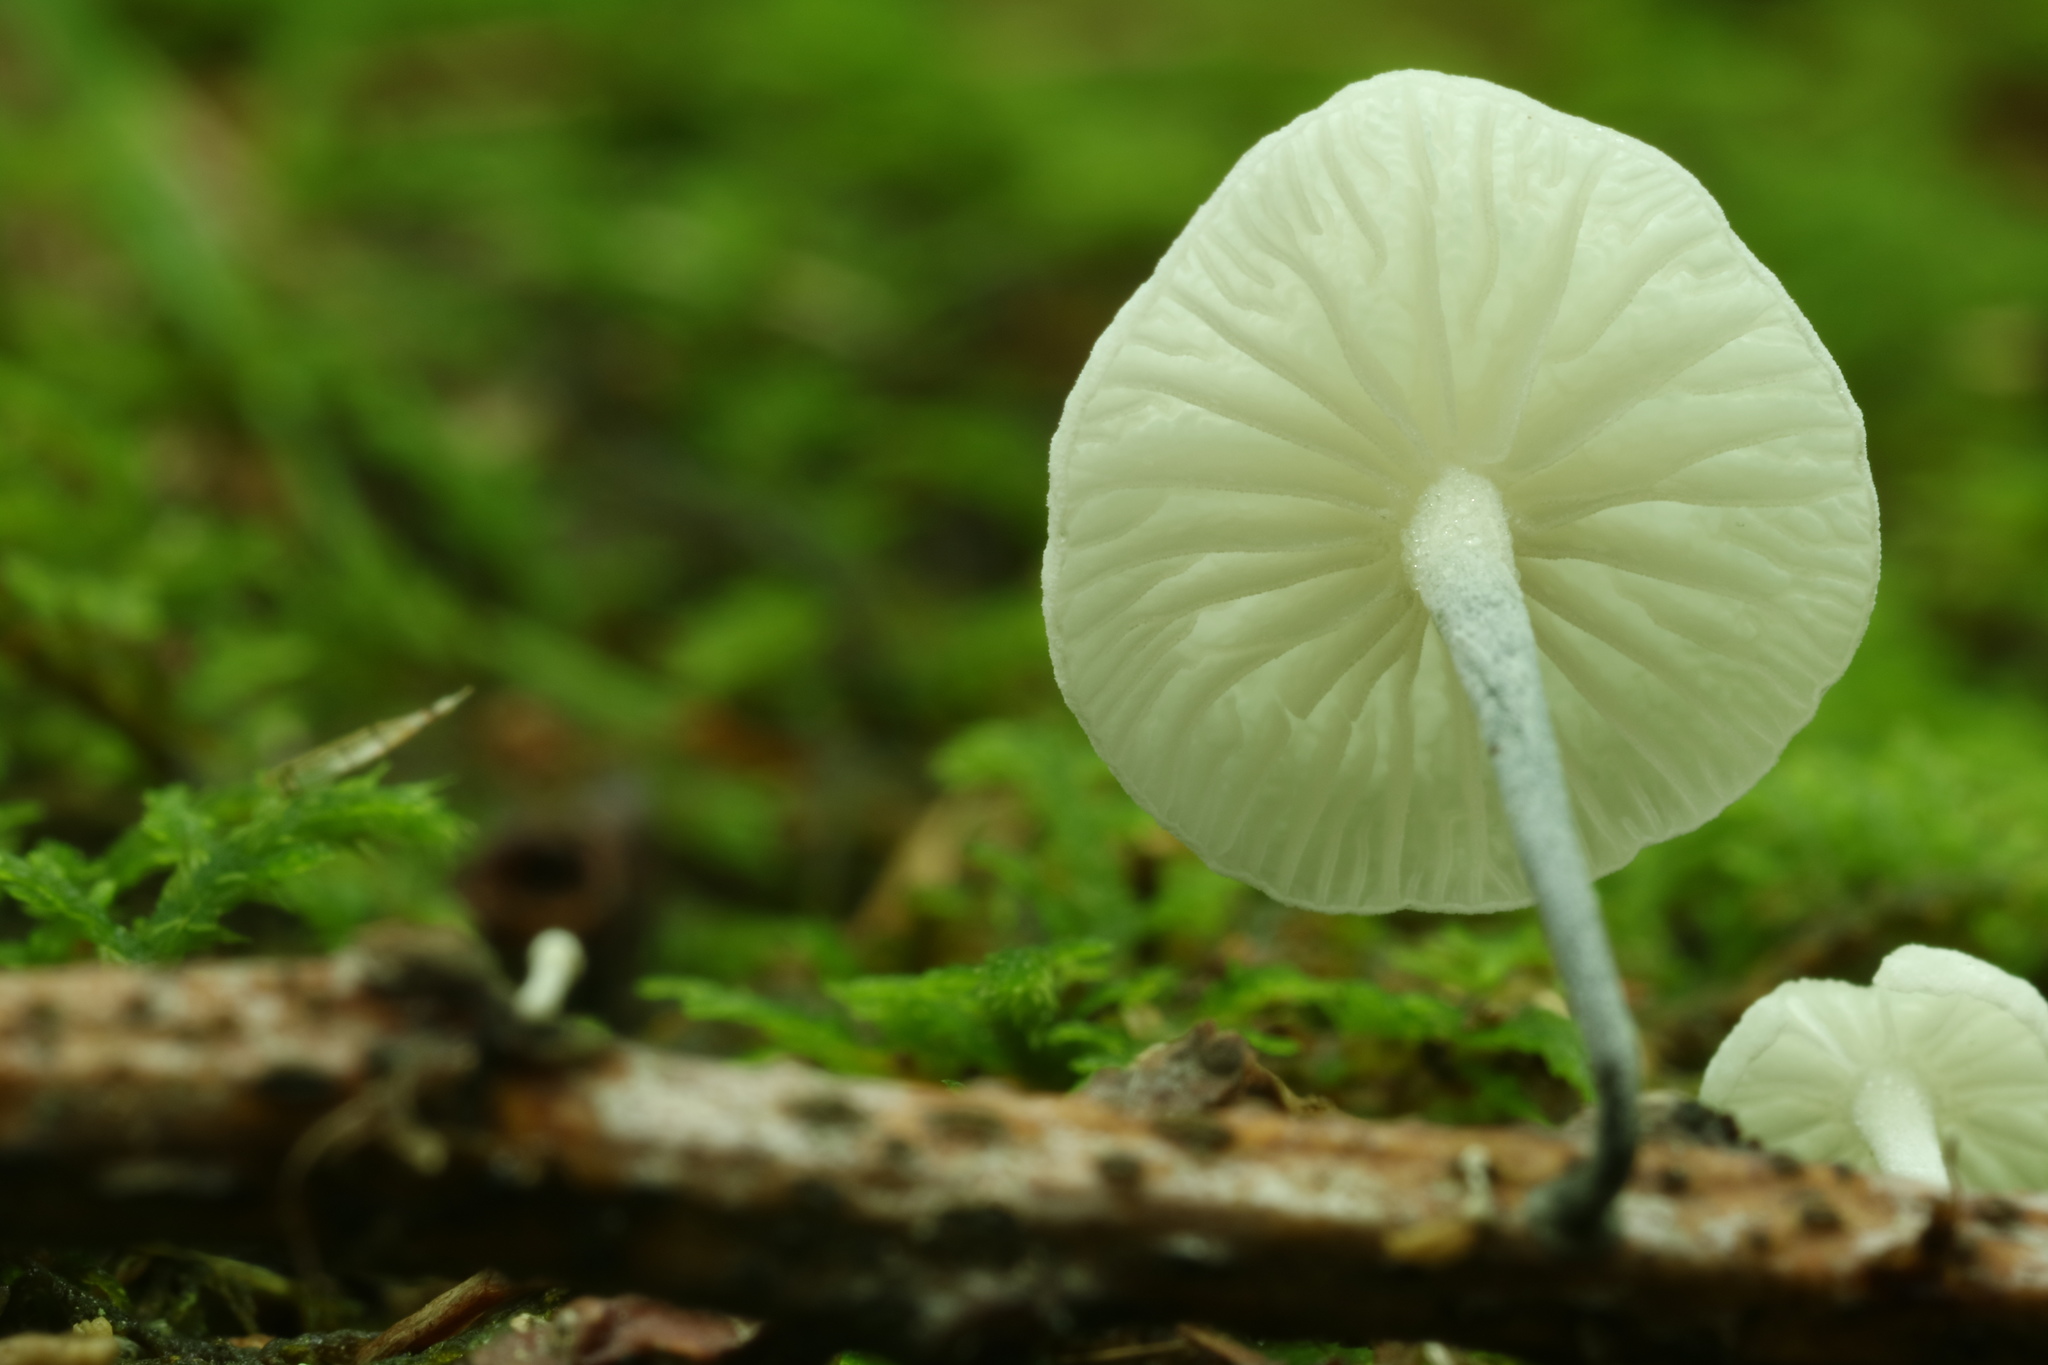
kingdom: Fungi
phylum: Basidiomycota
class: Agaricomycetes
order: Agaricales
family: Marasmiaceae
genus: Tetrapyrgos
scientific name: Tetrapyrgos nigripes
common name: Black-stalked marasmius
